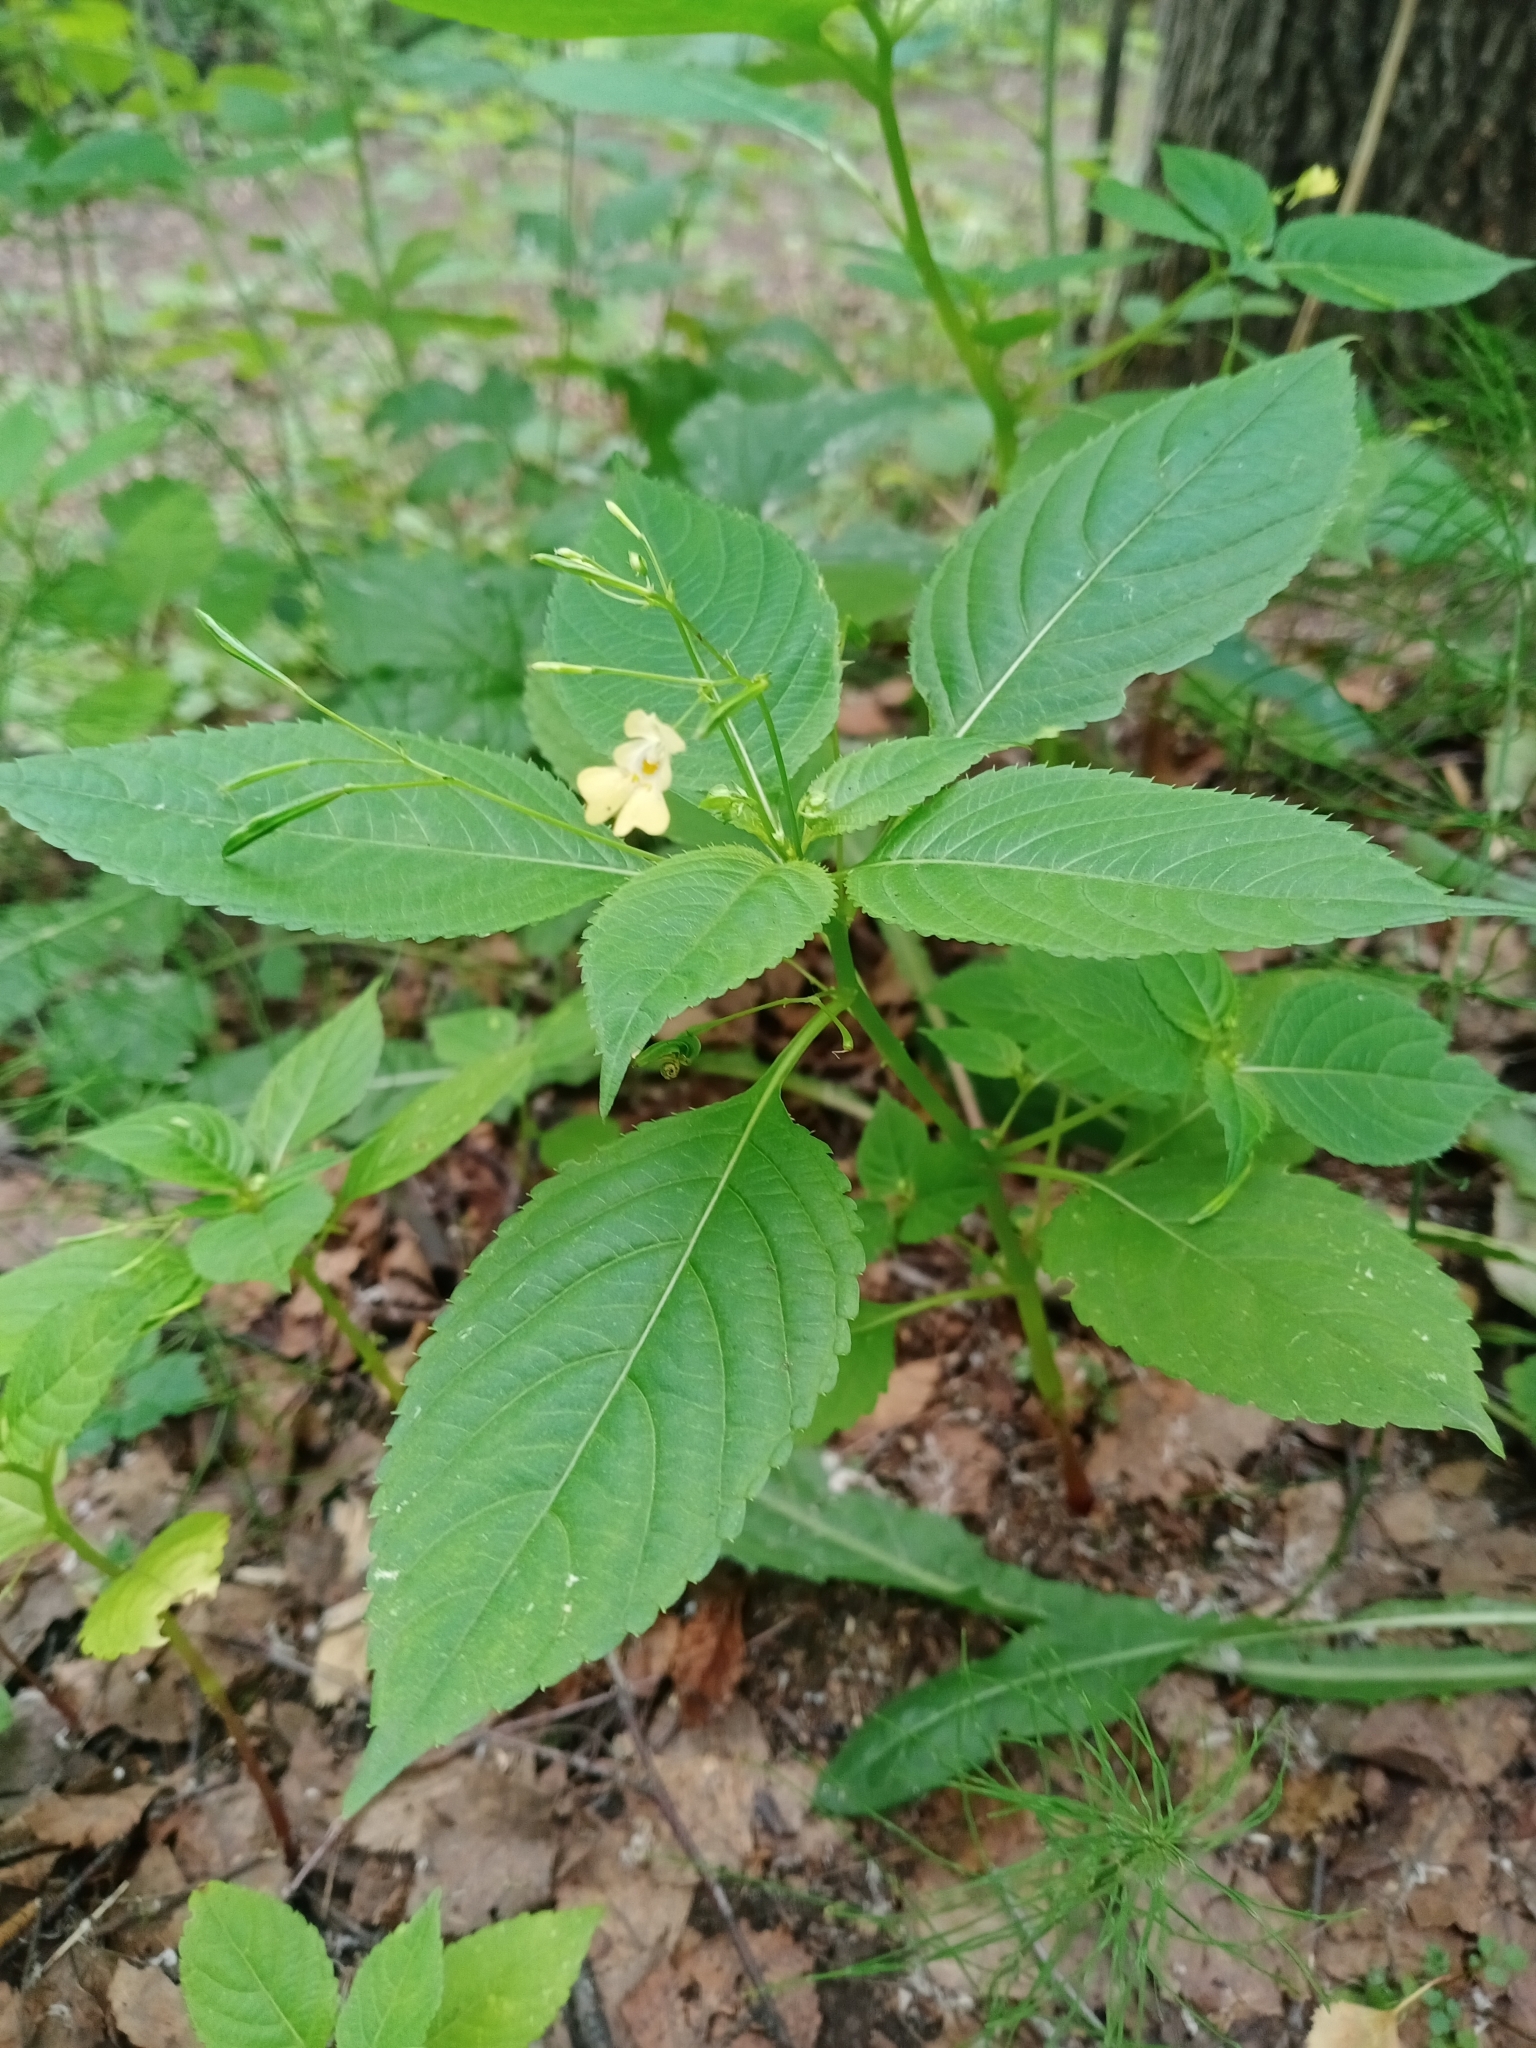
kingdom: Plantae
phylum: Tracheophyta
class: Magnoliopsida
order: Ericales
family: Balsaminaceae
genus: Impatiens
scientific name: Impatiens parviflora
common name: Small balsam
